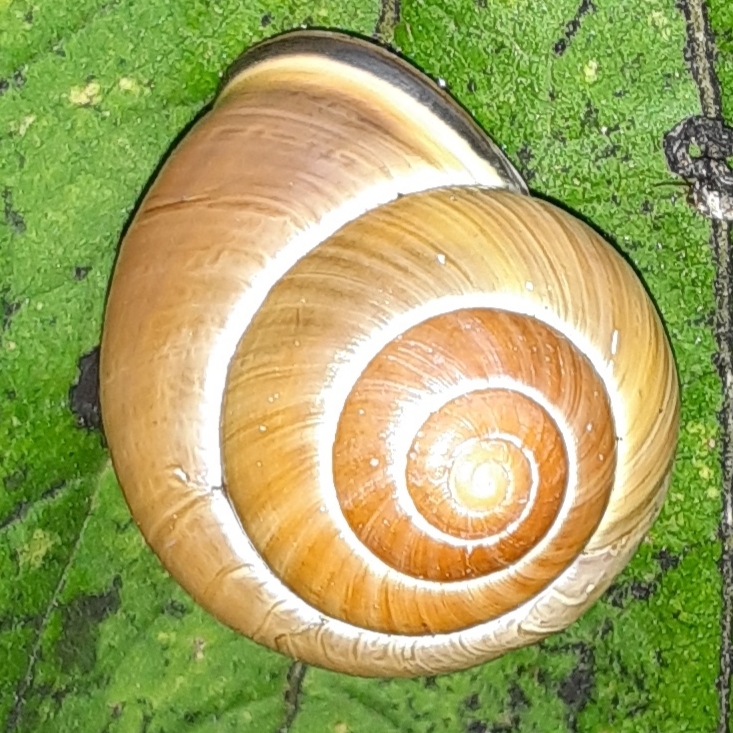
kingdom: Animalia
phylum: Mollusca
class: Gastropoda
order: Stylommatophora
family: Helicidae
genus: Cepaea
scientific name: Cepaea nemoralis
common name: Grovesnail
